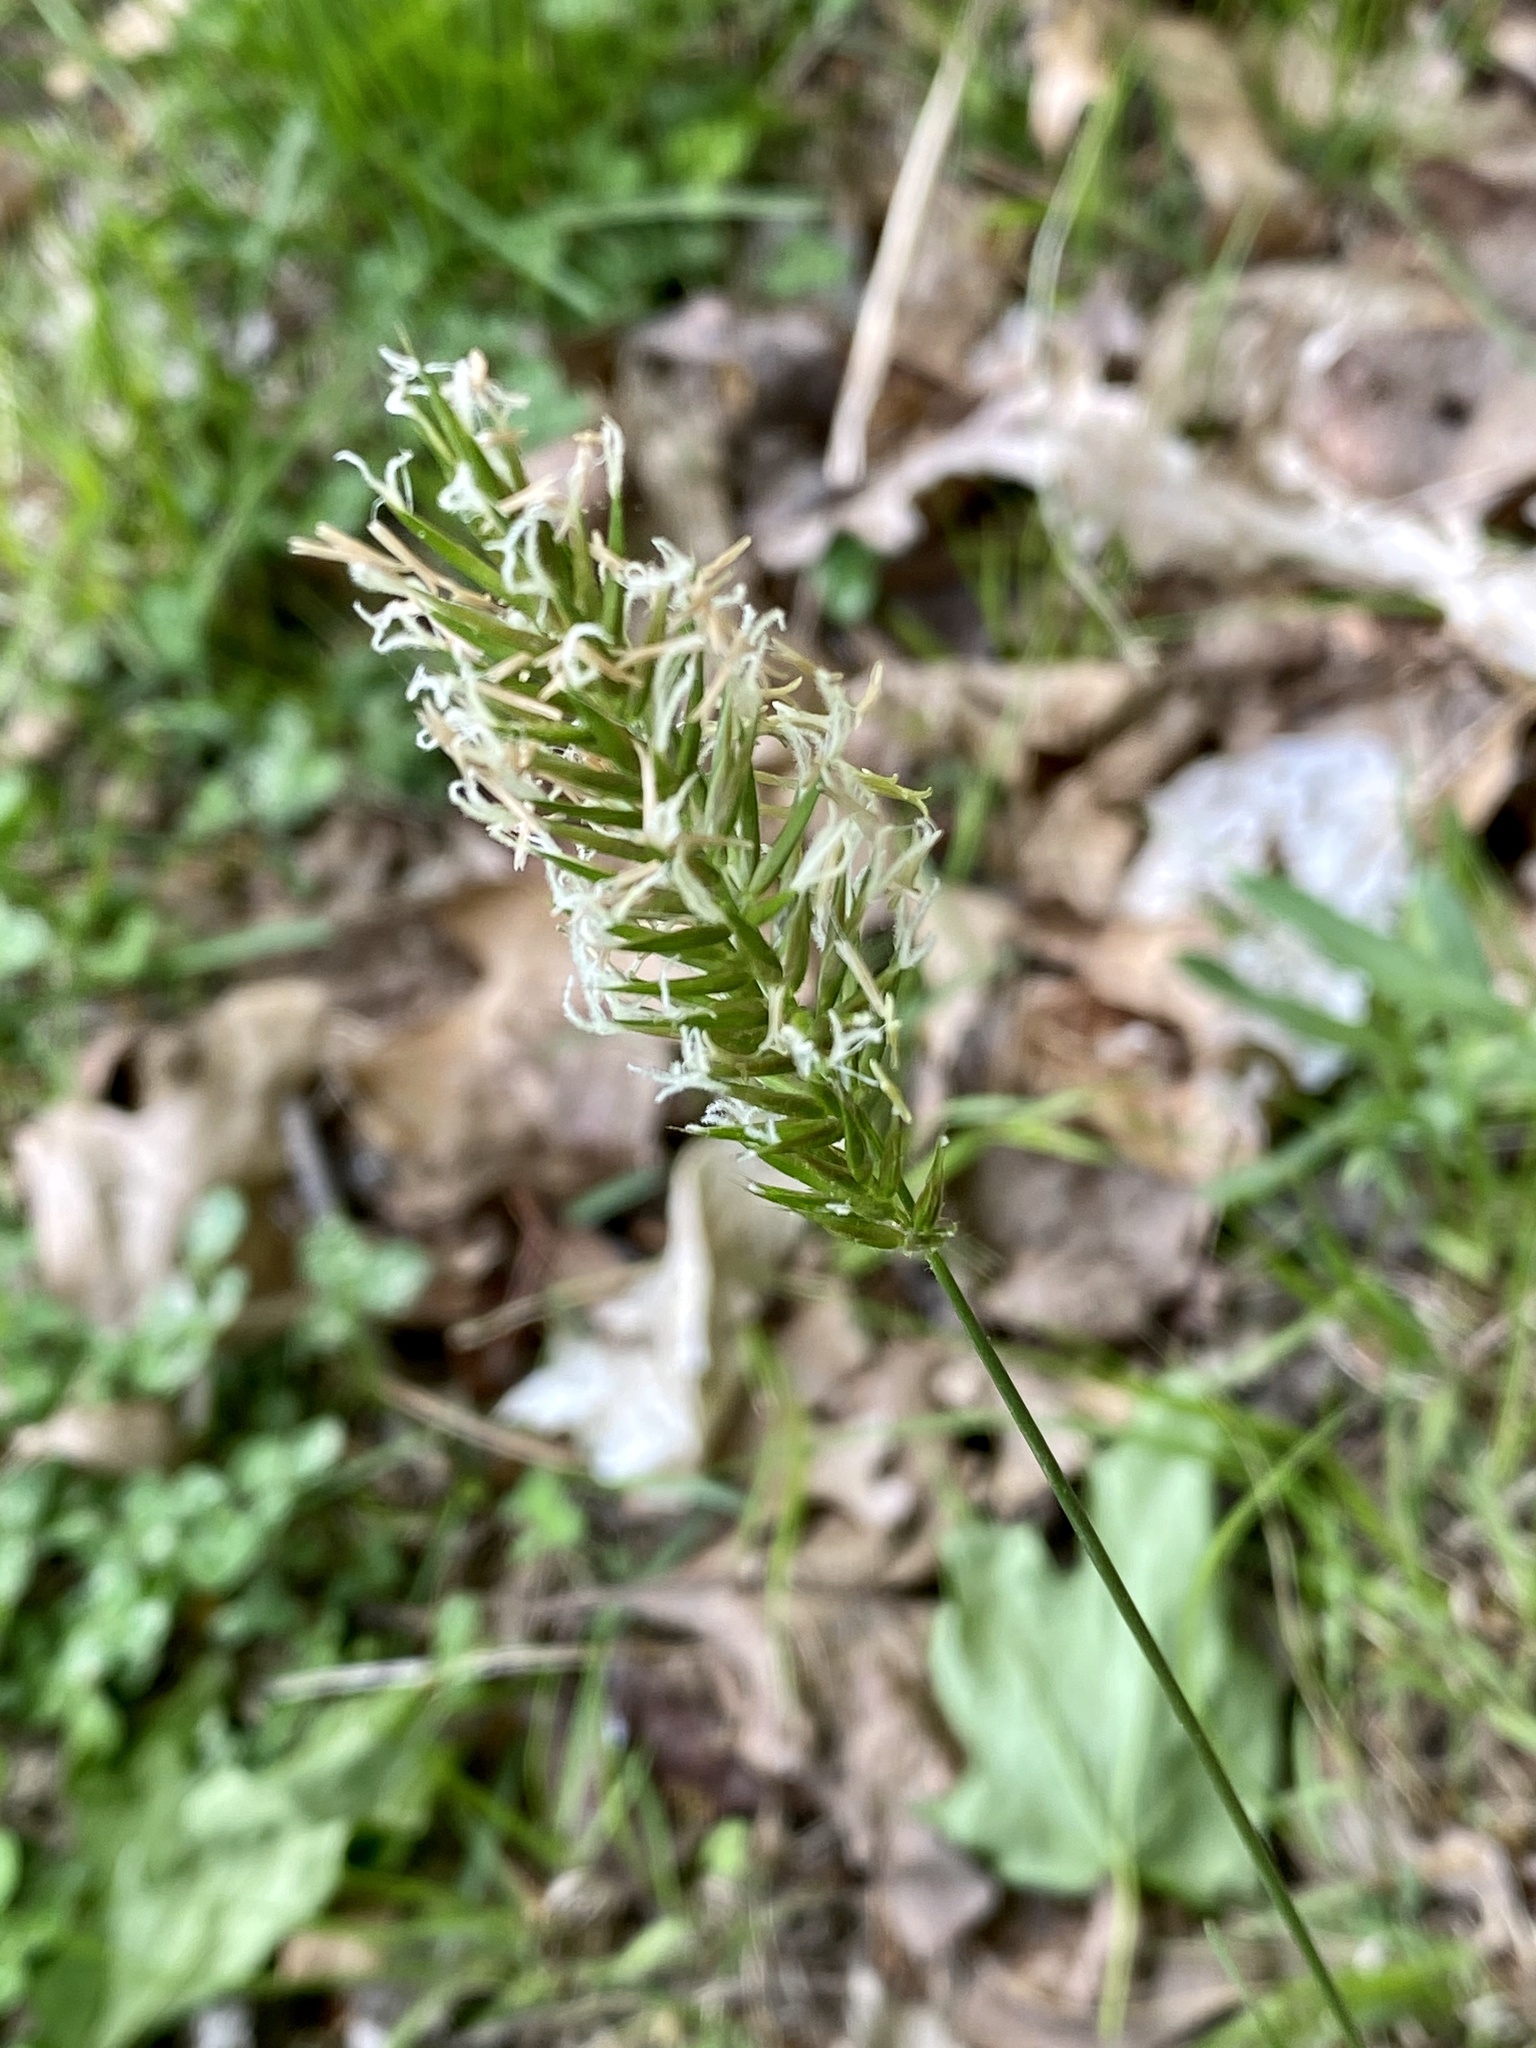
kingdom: Plantae
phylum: Tracheophyta
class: Liliopsida
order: Poales
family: Poaceae
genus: Anthoxanthum
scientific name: Anthoxanthum odoratum
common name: Sweet vernalgrass
